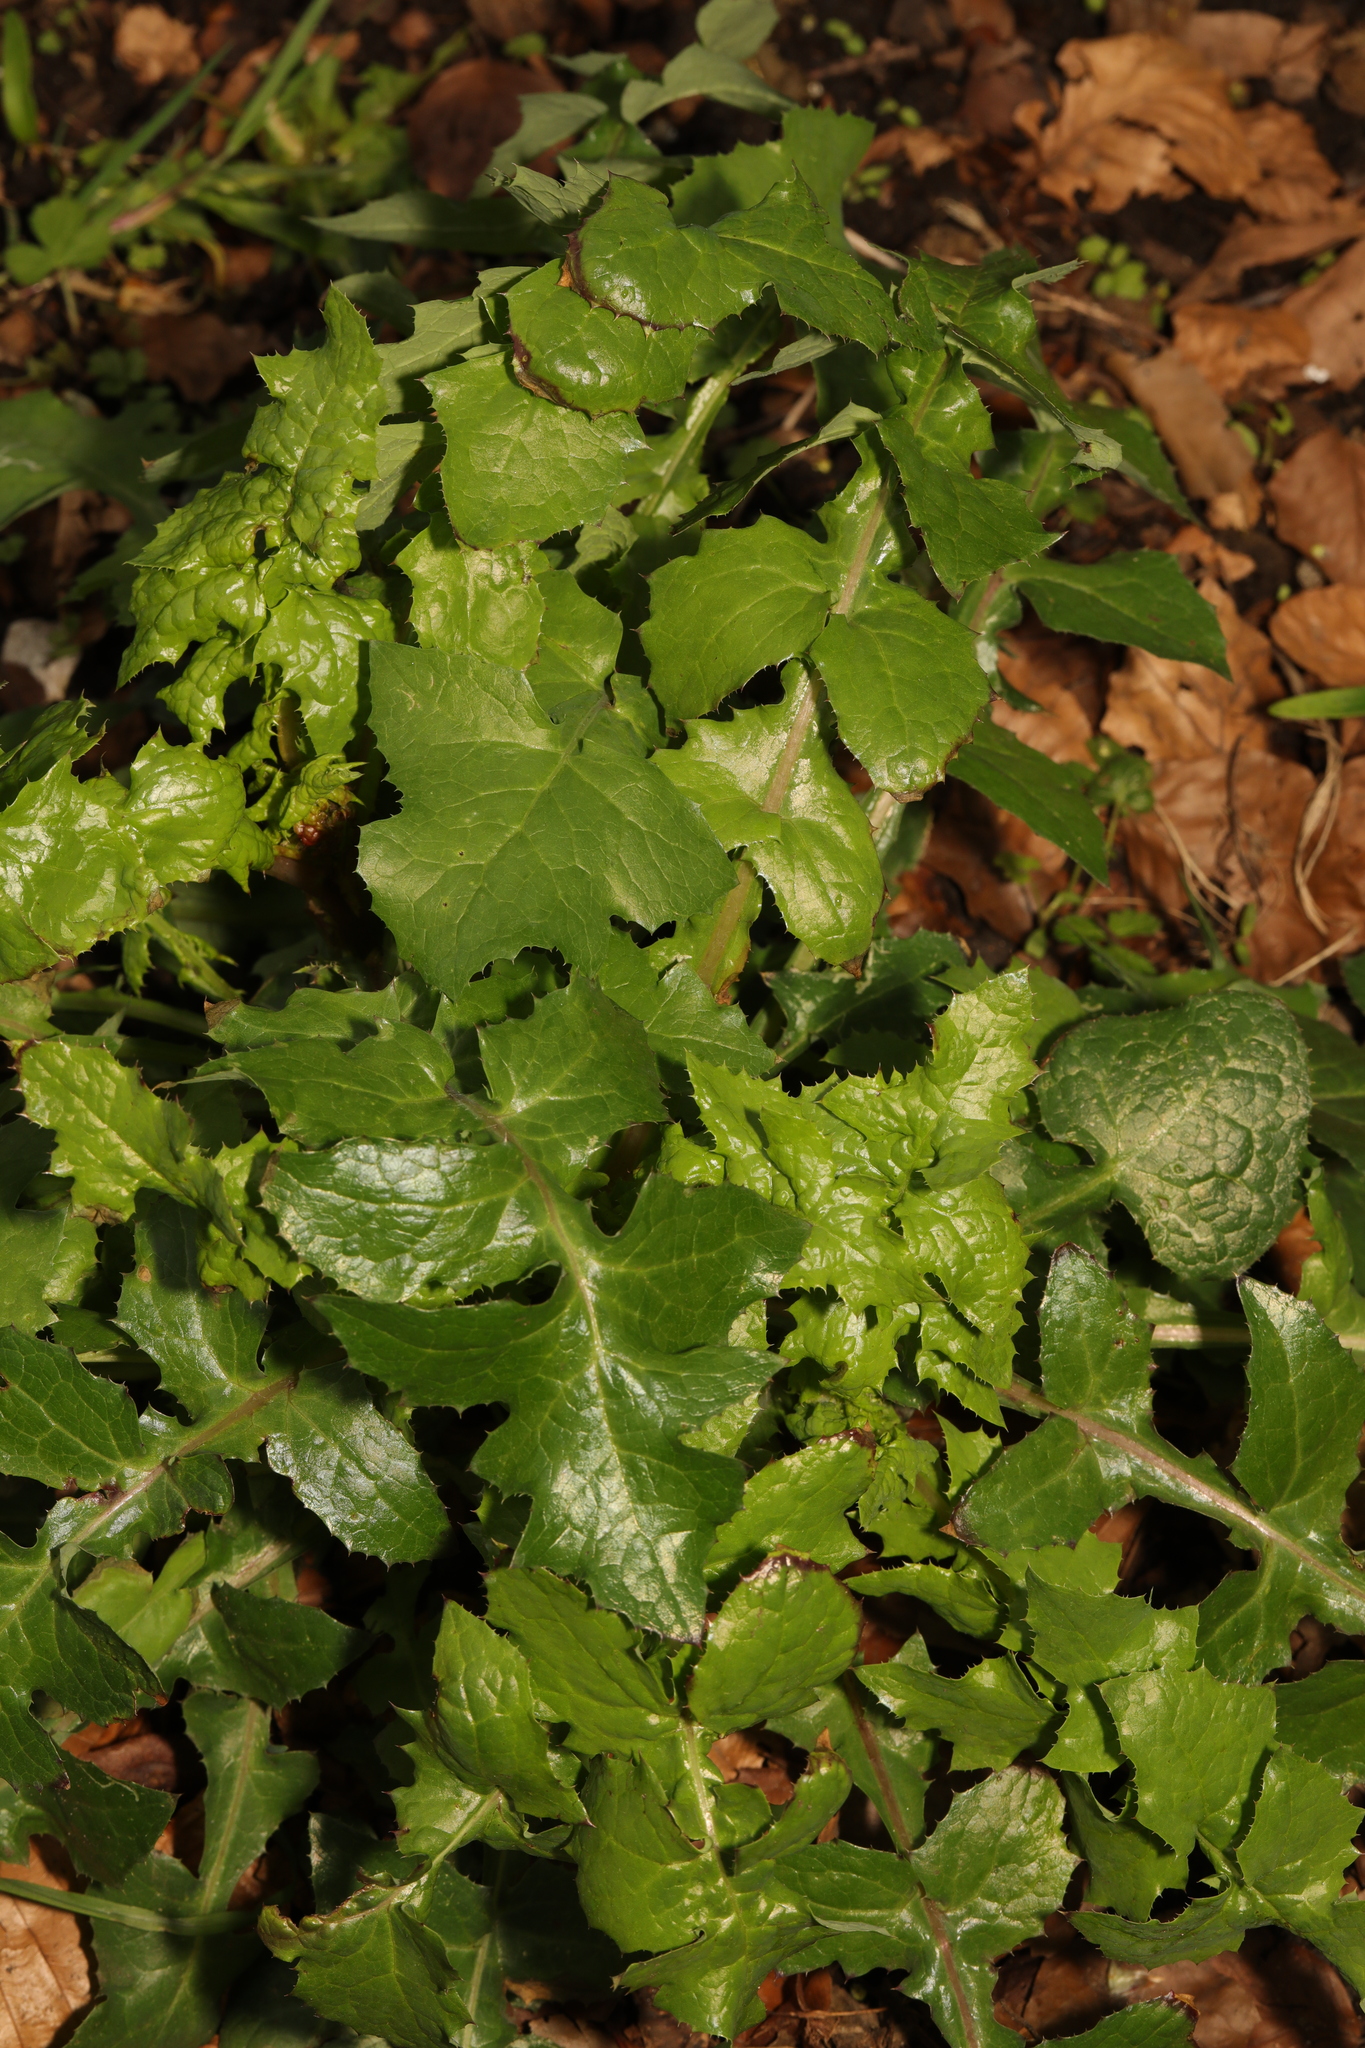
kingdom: Plantae
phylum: Tracheophyta
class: Magnoliopsida
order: Asterales
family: Asteraceae
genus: Sonchus
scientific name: Sonchus oleraceus
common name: Common sowthistle
